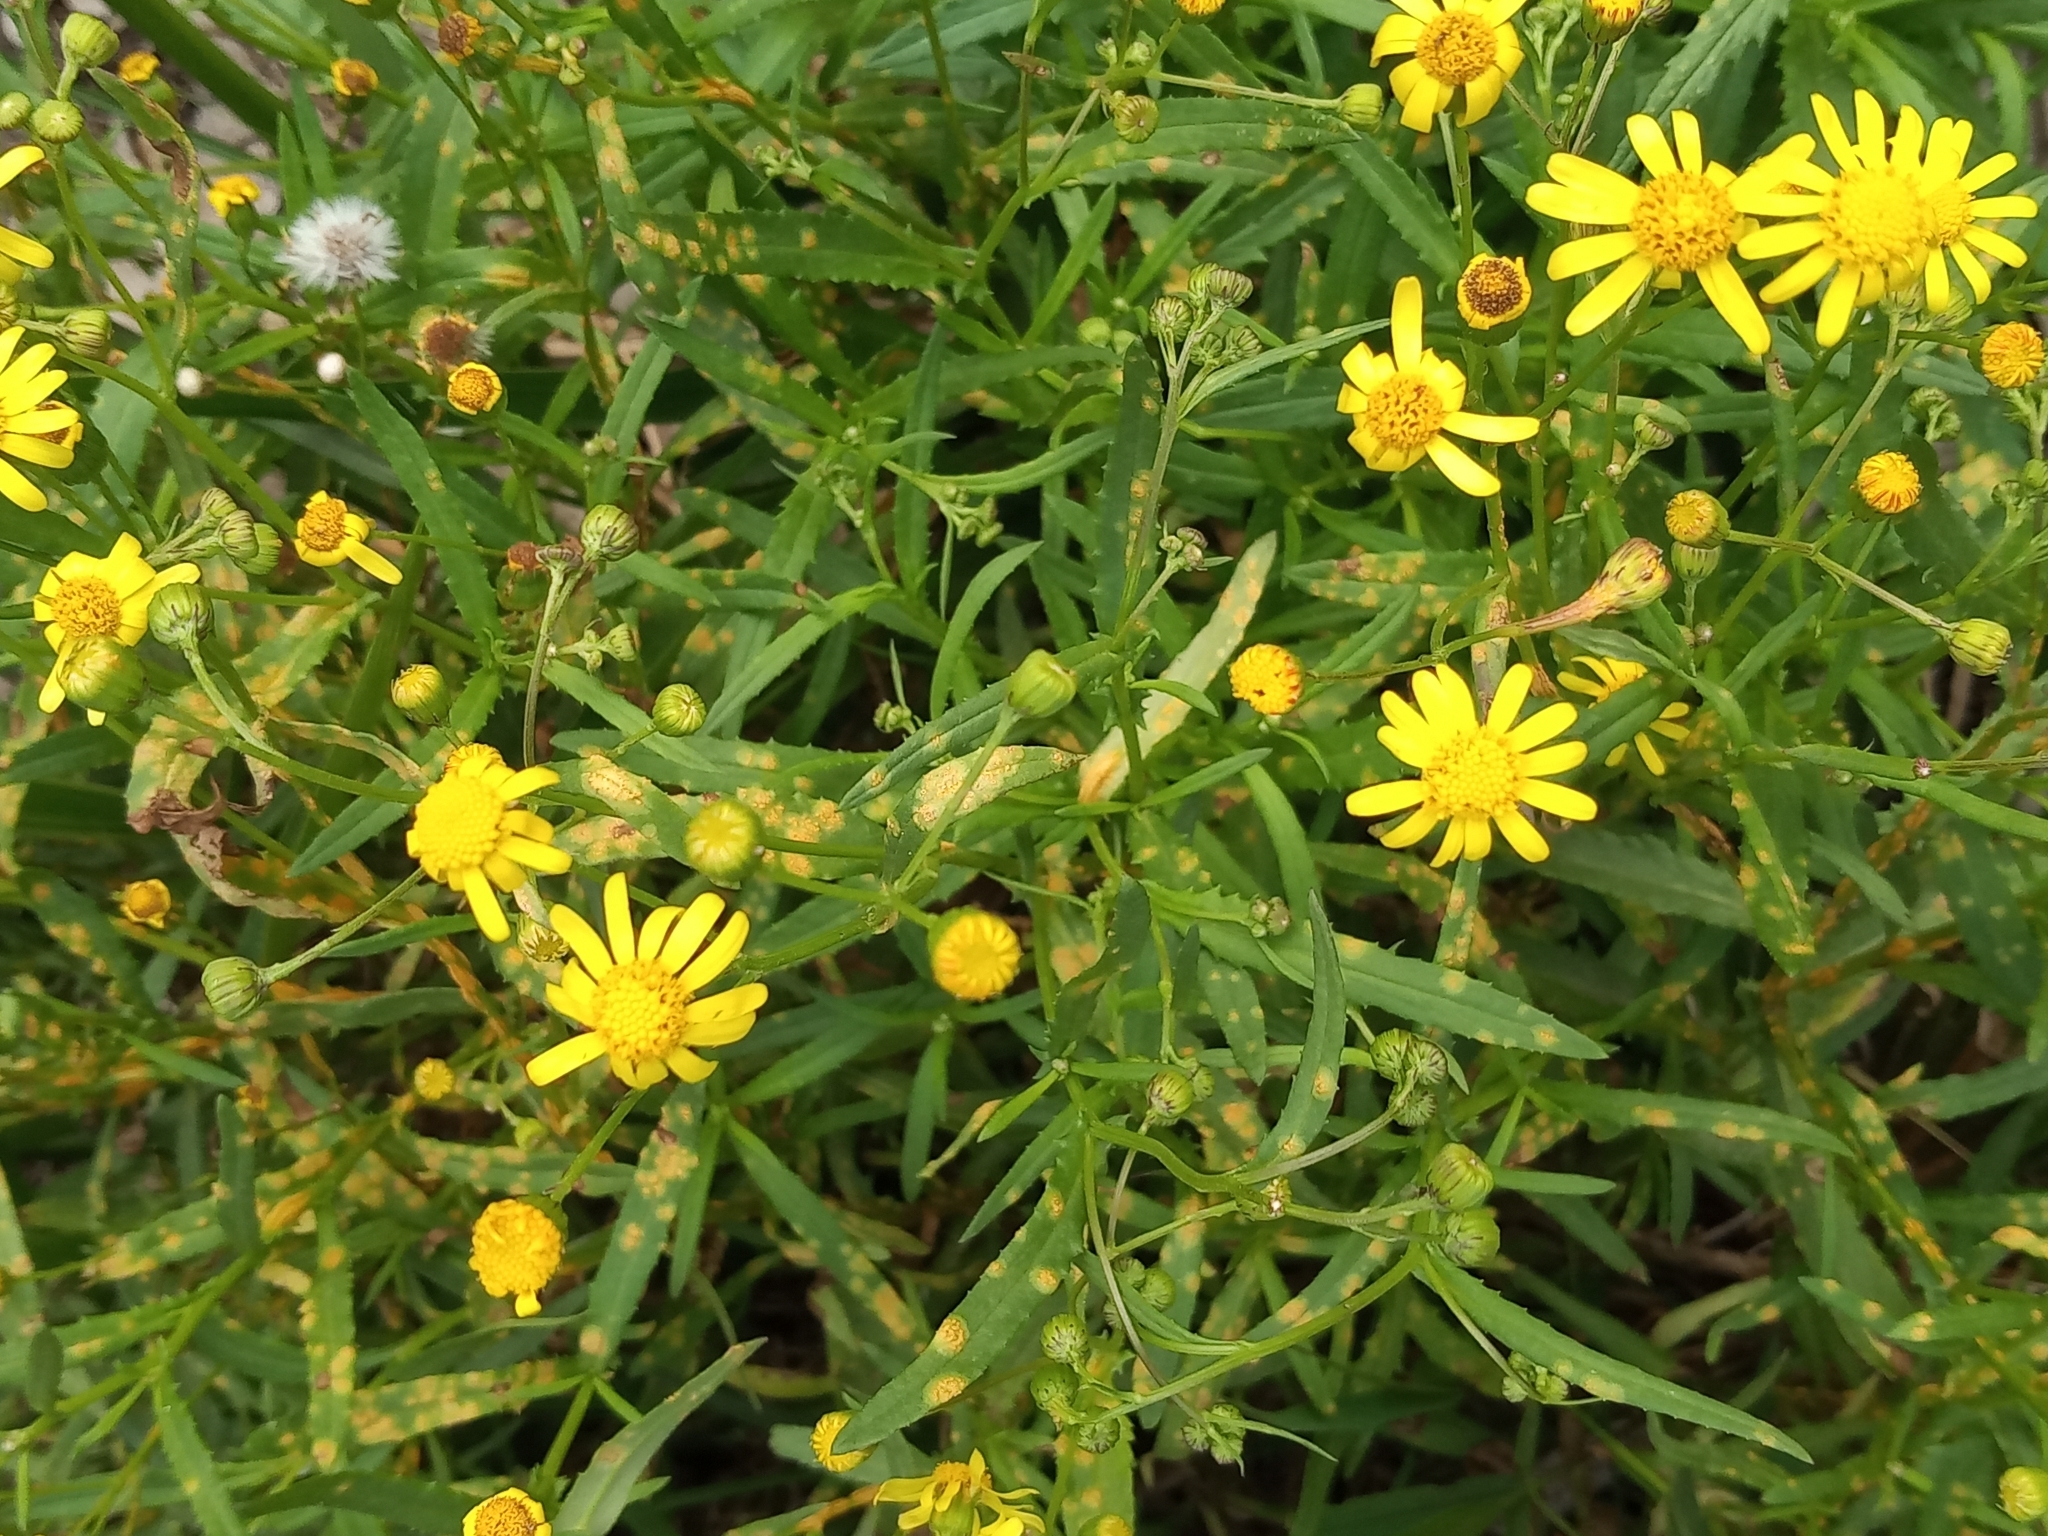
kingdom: Plantae
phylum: Tracheophyta
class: Magnoliopsida
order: Asterales
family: Asteraceae
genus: Senecio
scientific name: Senecio madagascariensis
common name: Madagascar ragwort
